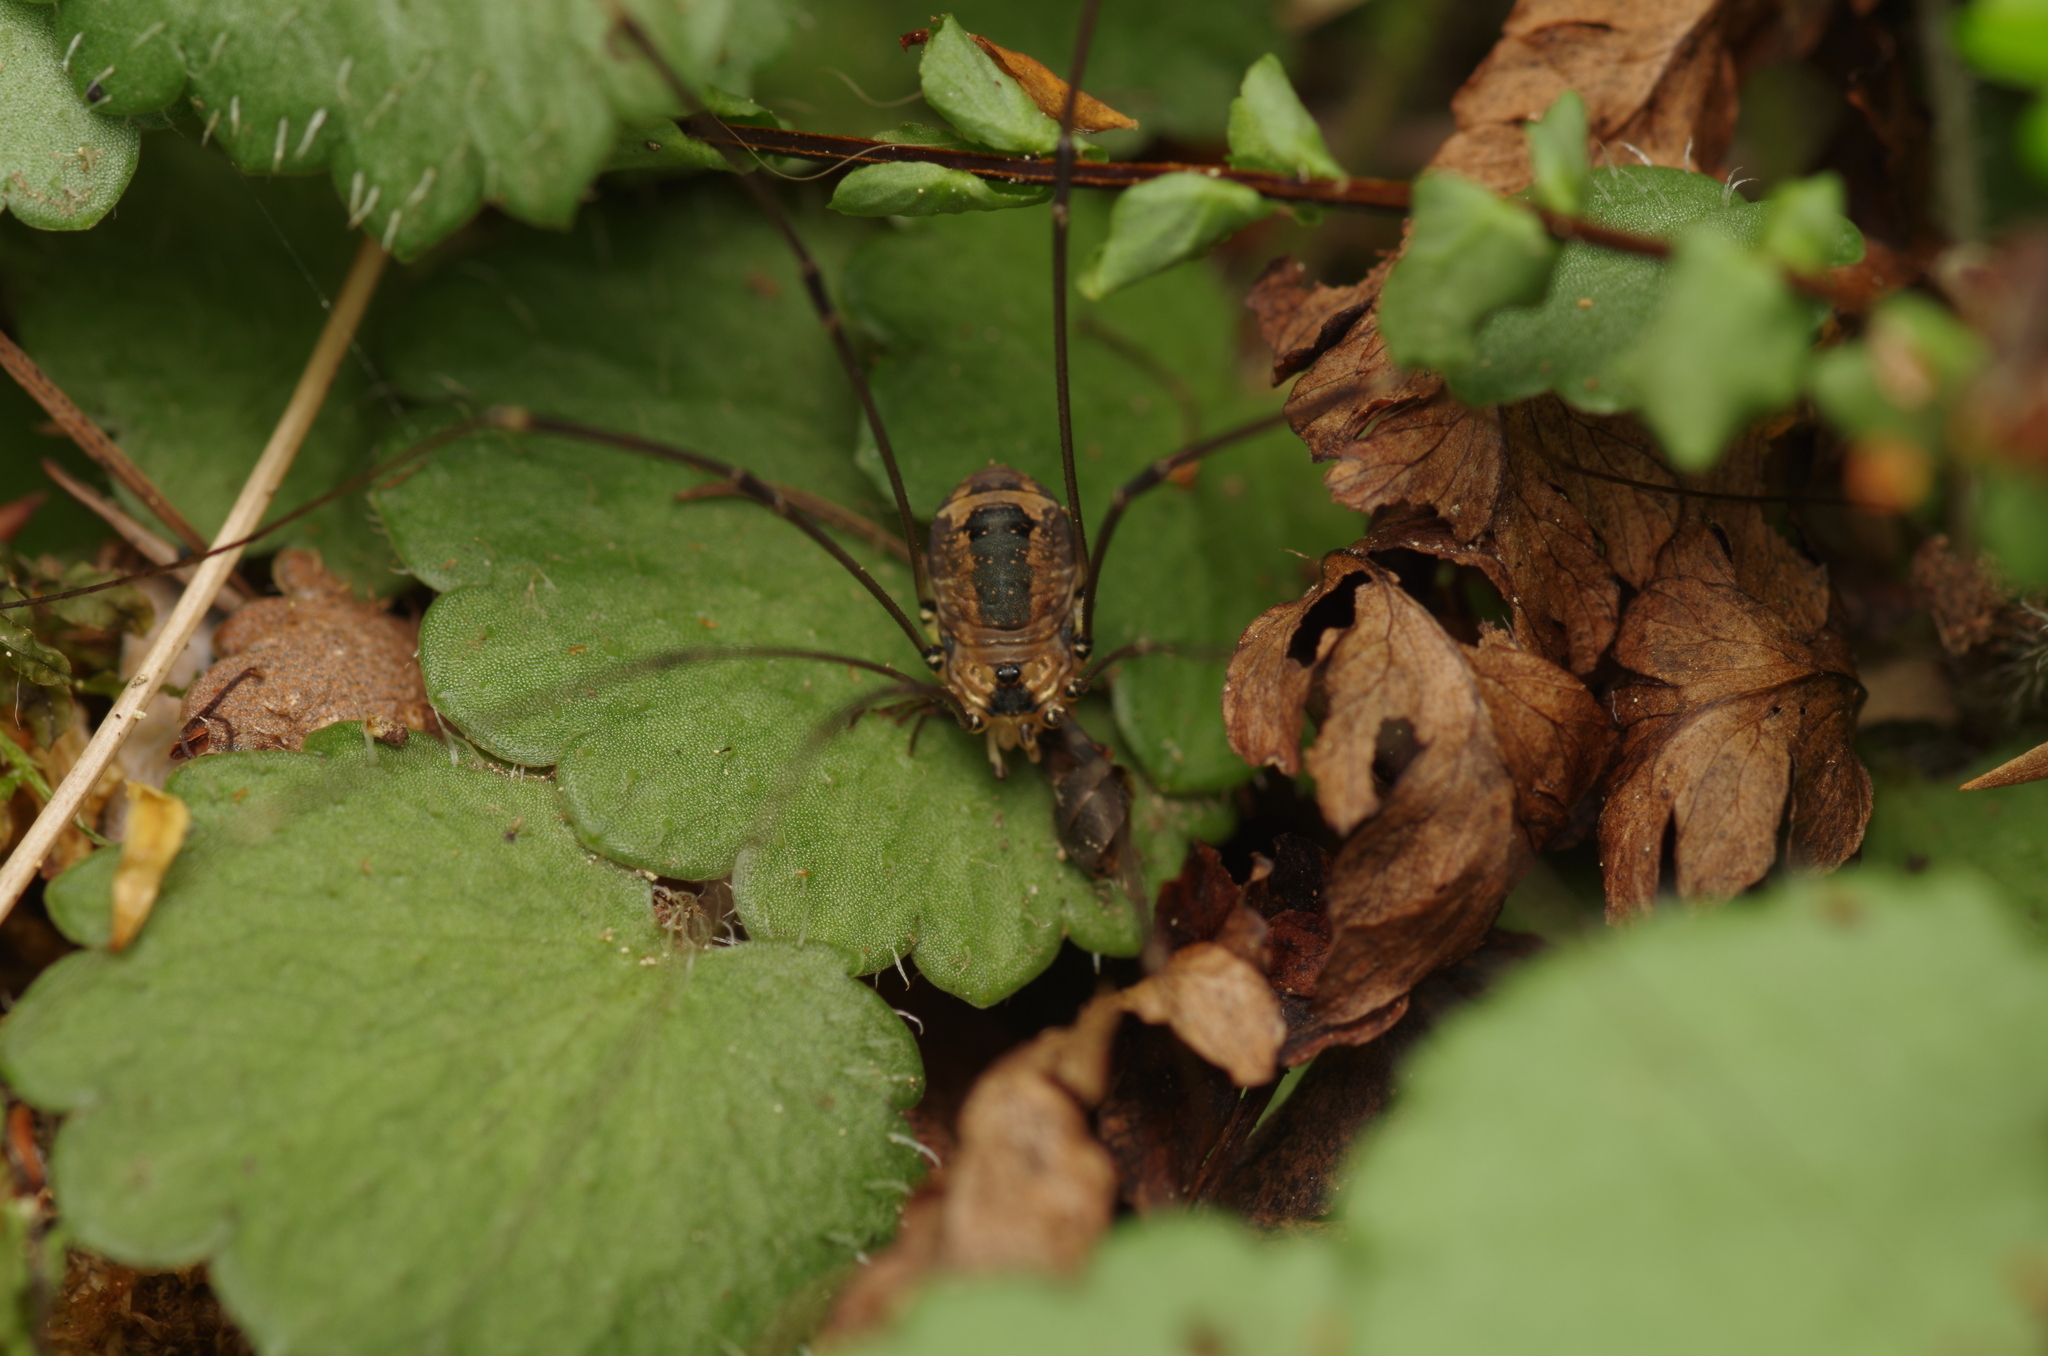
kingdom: Animalia
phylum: Arthropoda
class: Arachnida
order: Opiliones
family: Sclerosomatidae
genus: Leiobunum
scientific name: Leiobunum rotundum
